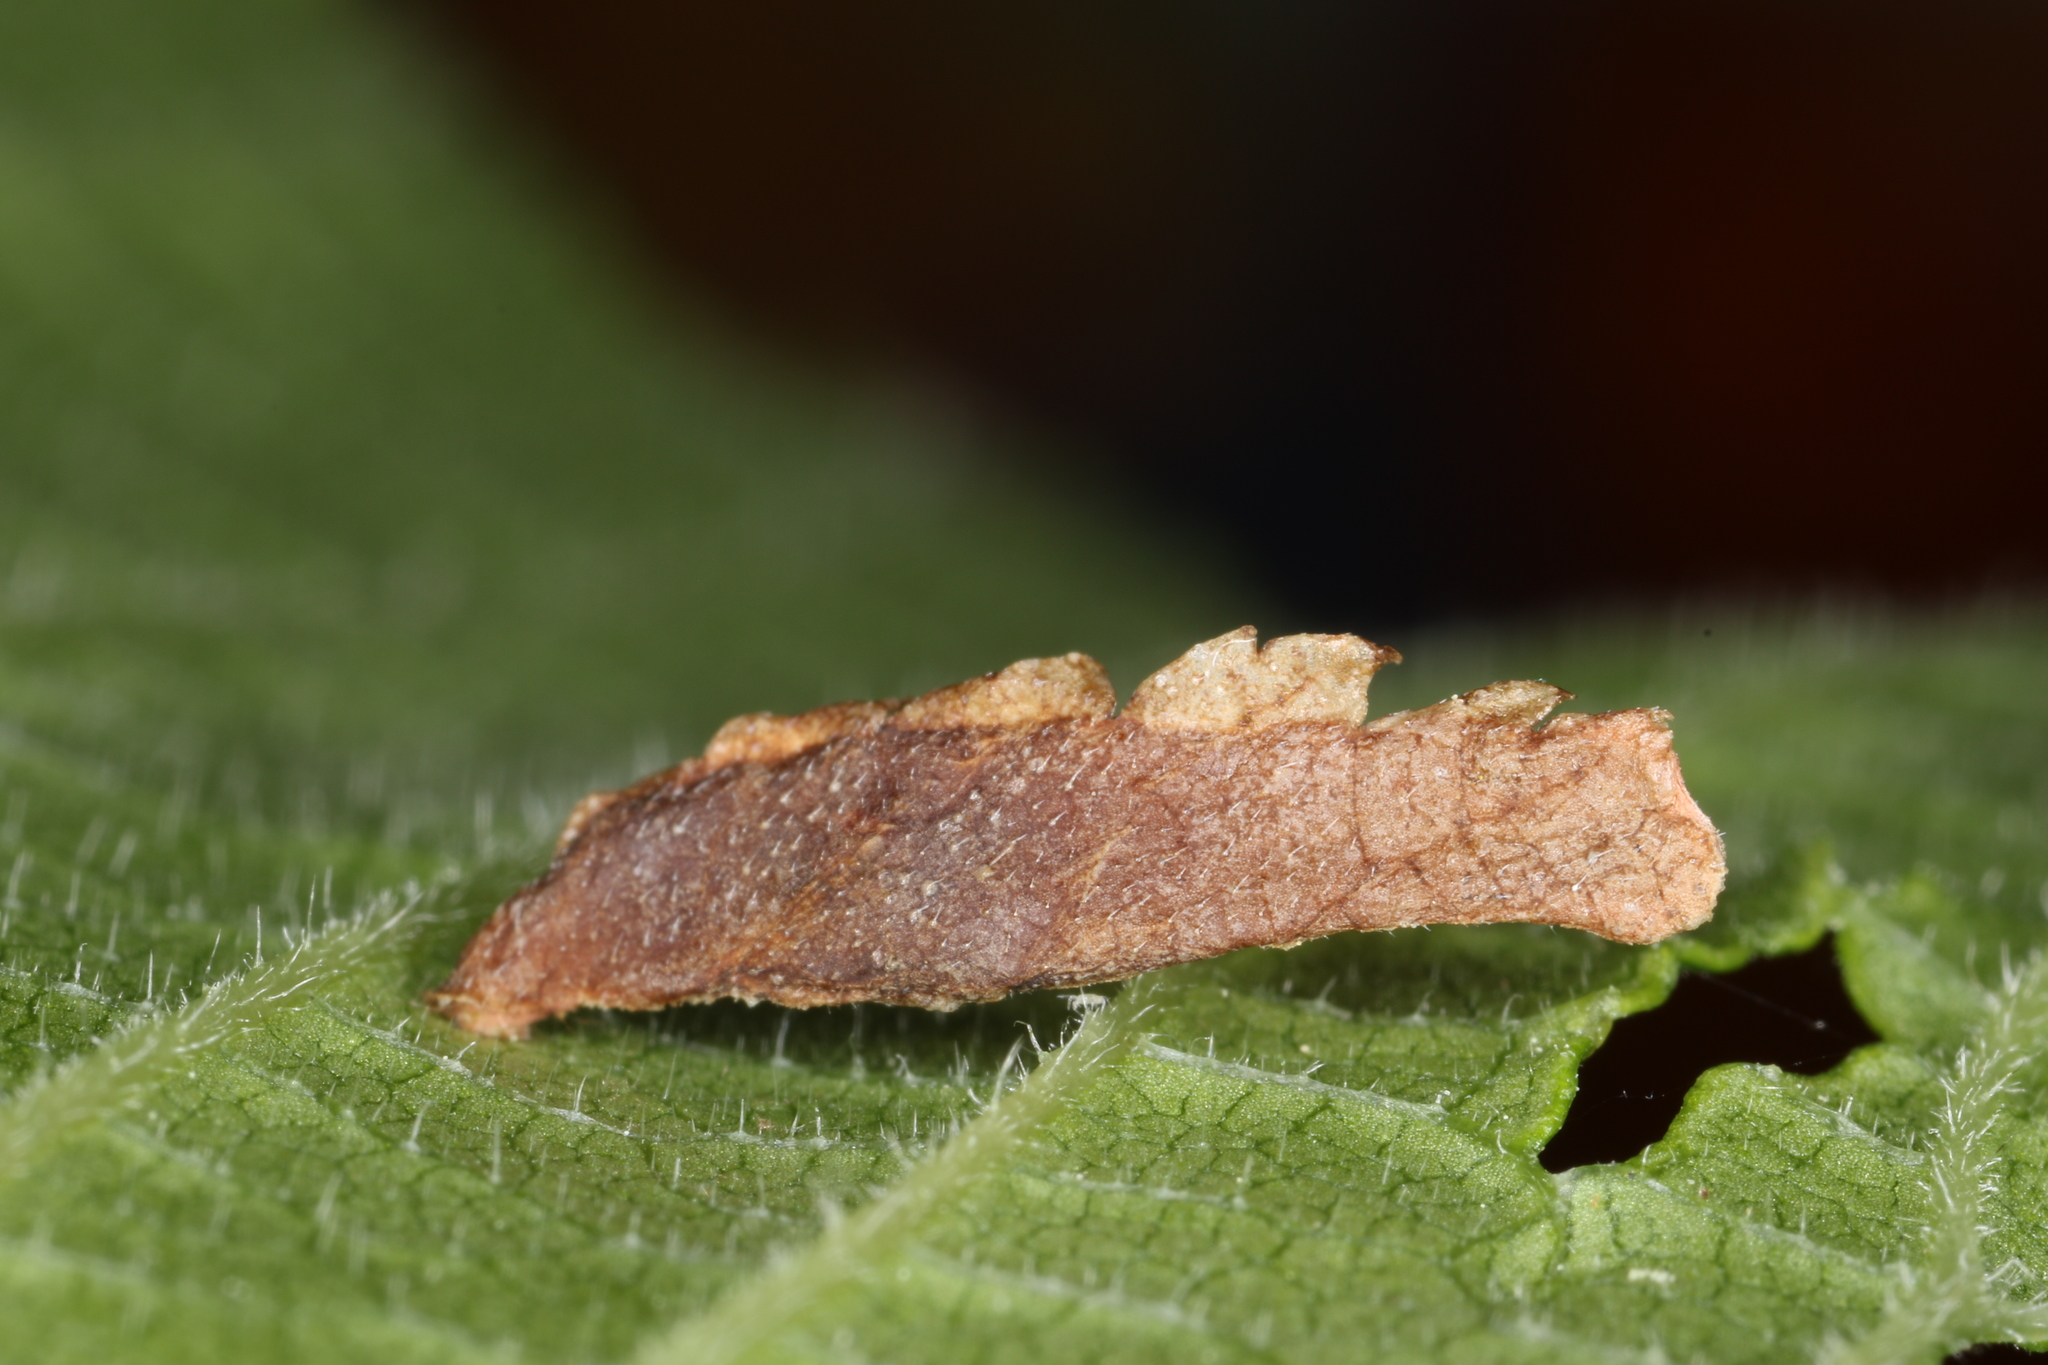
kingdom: Animalia
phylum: Arthropoda
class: Insecta
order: Lepidoptera
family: Coleophoridae
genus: Coleophora
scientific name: Coleophora limosipennella
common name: Dark elm case-bearer
